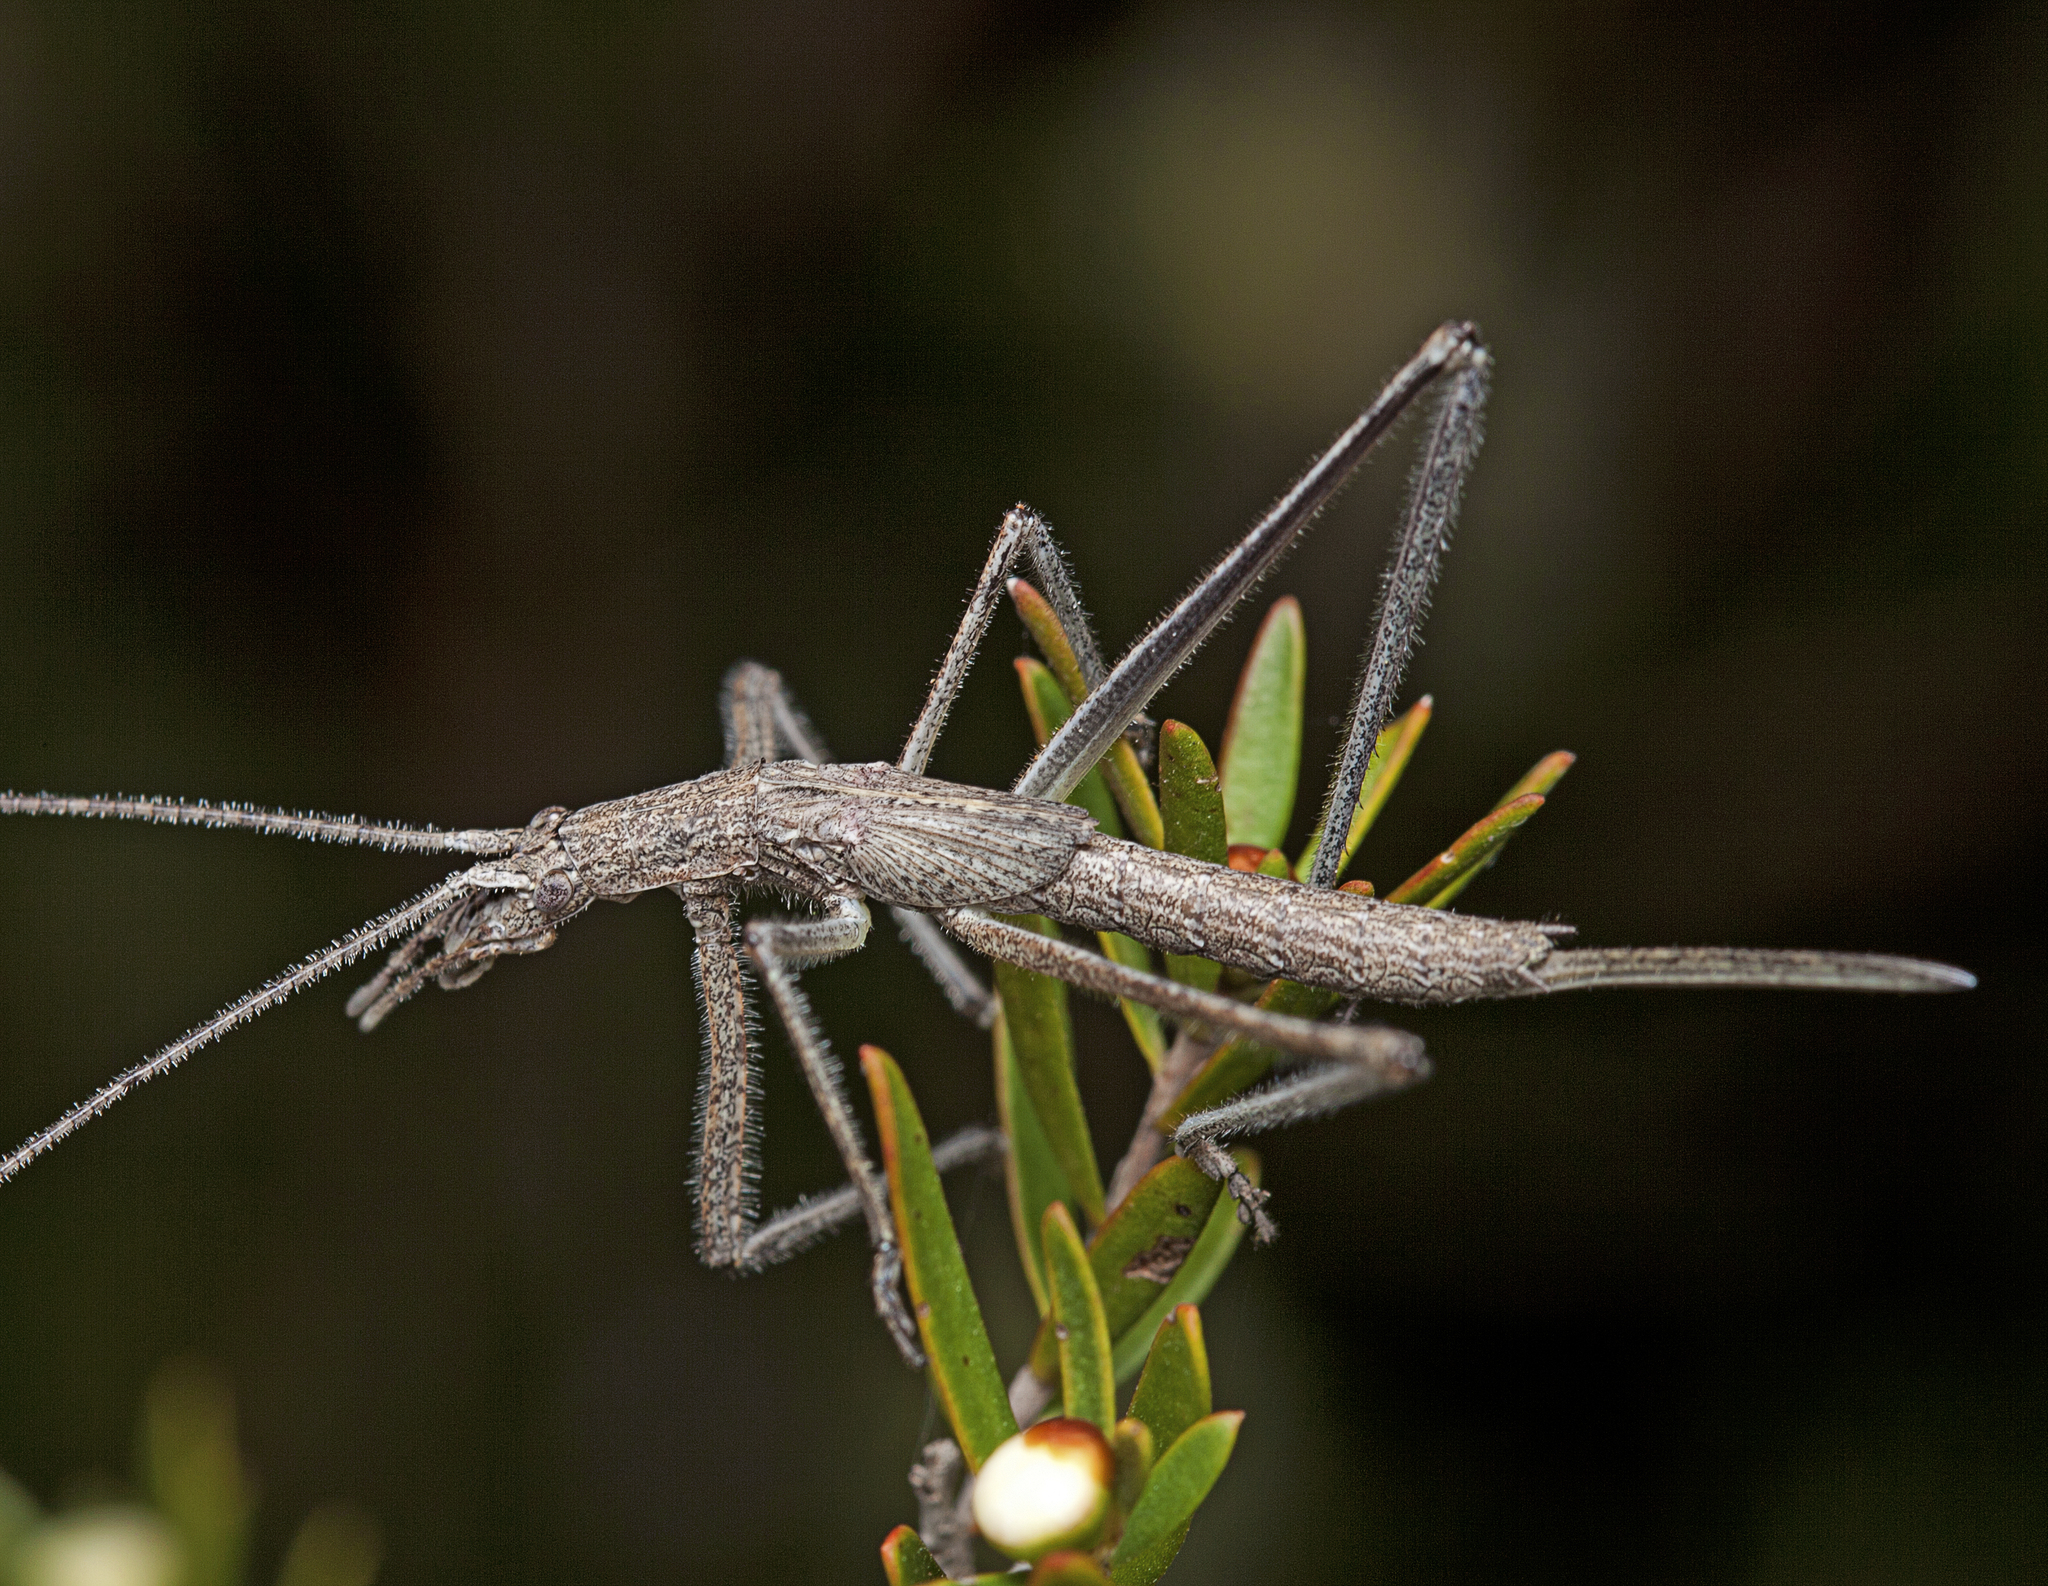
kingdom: Animalia
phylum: Arthropoda
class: Insecta
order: Orthoptera
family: Tettigoniidae
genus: Zaprochilus
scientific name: Zaprochilus australis
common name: Australian twig-mimicking katydid
